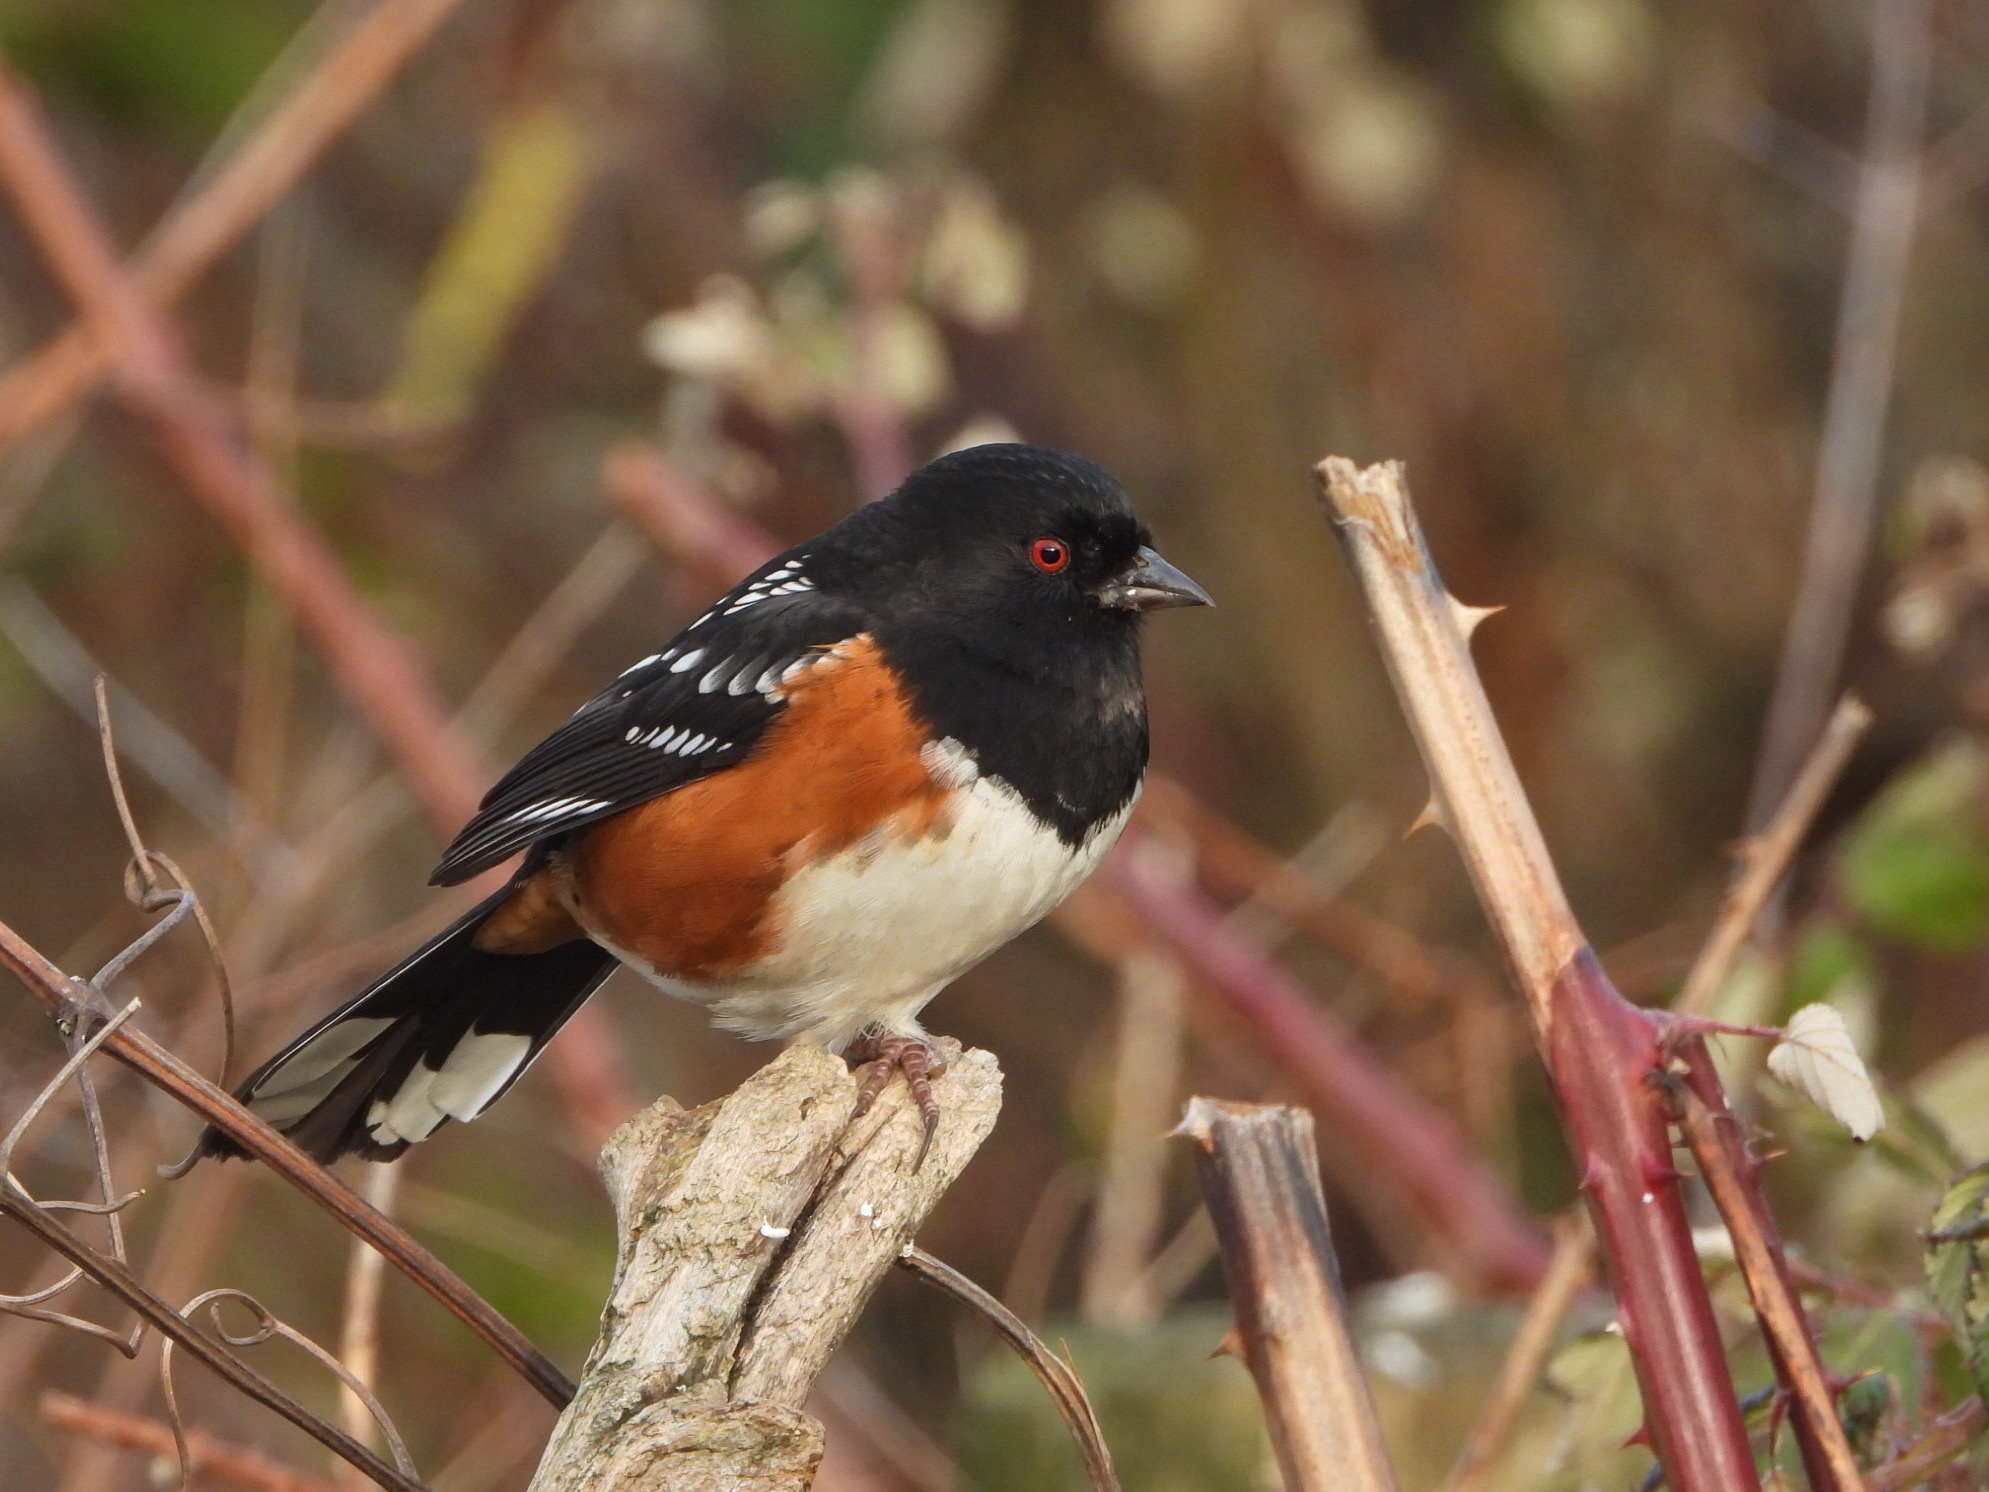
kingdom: Animalia
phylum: Chordata
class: Aves
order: Passeriformes
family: Passerellidae
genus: Pipilo
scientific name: Pipilo maculatus
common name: Spotted towhee
